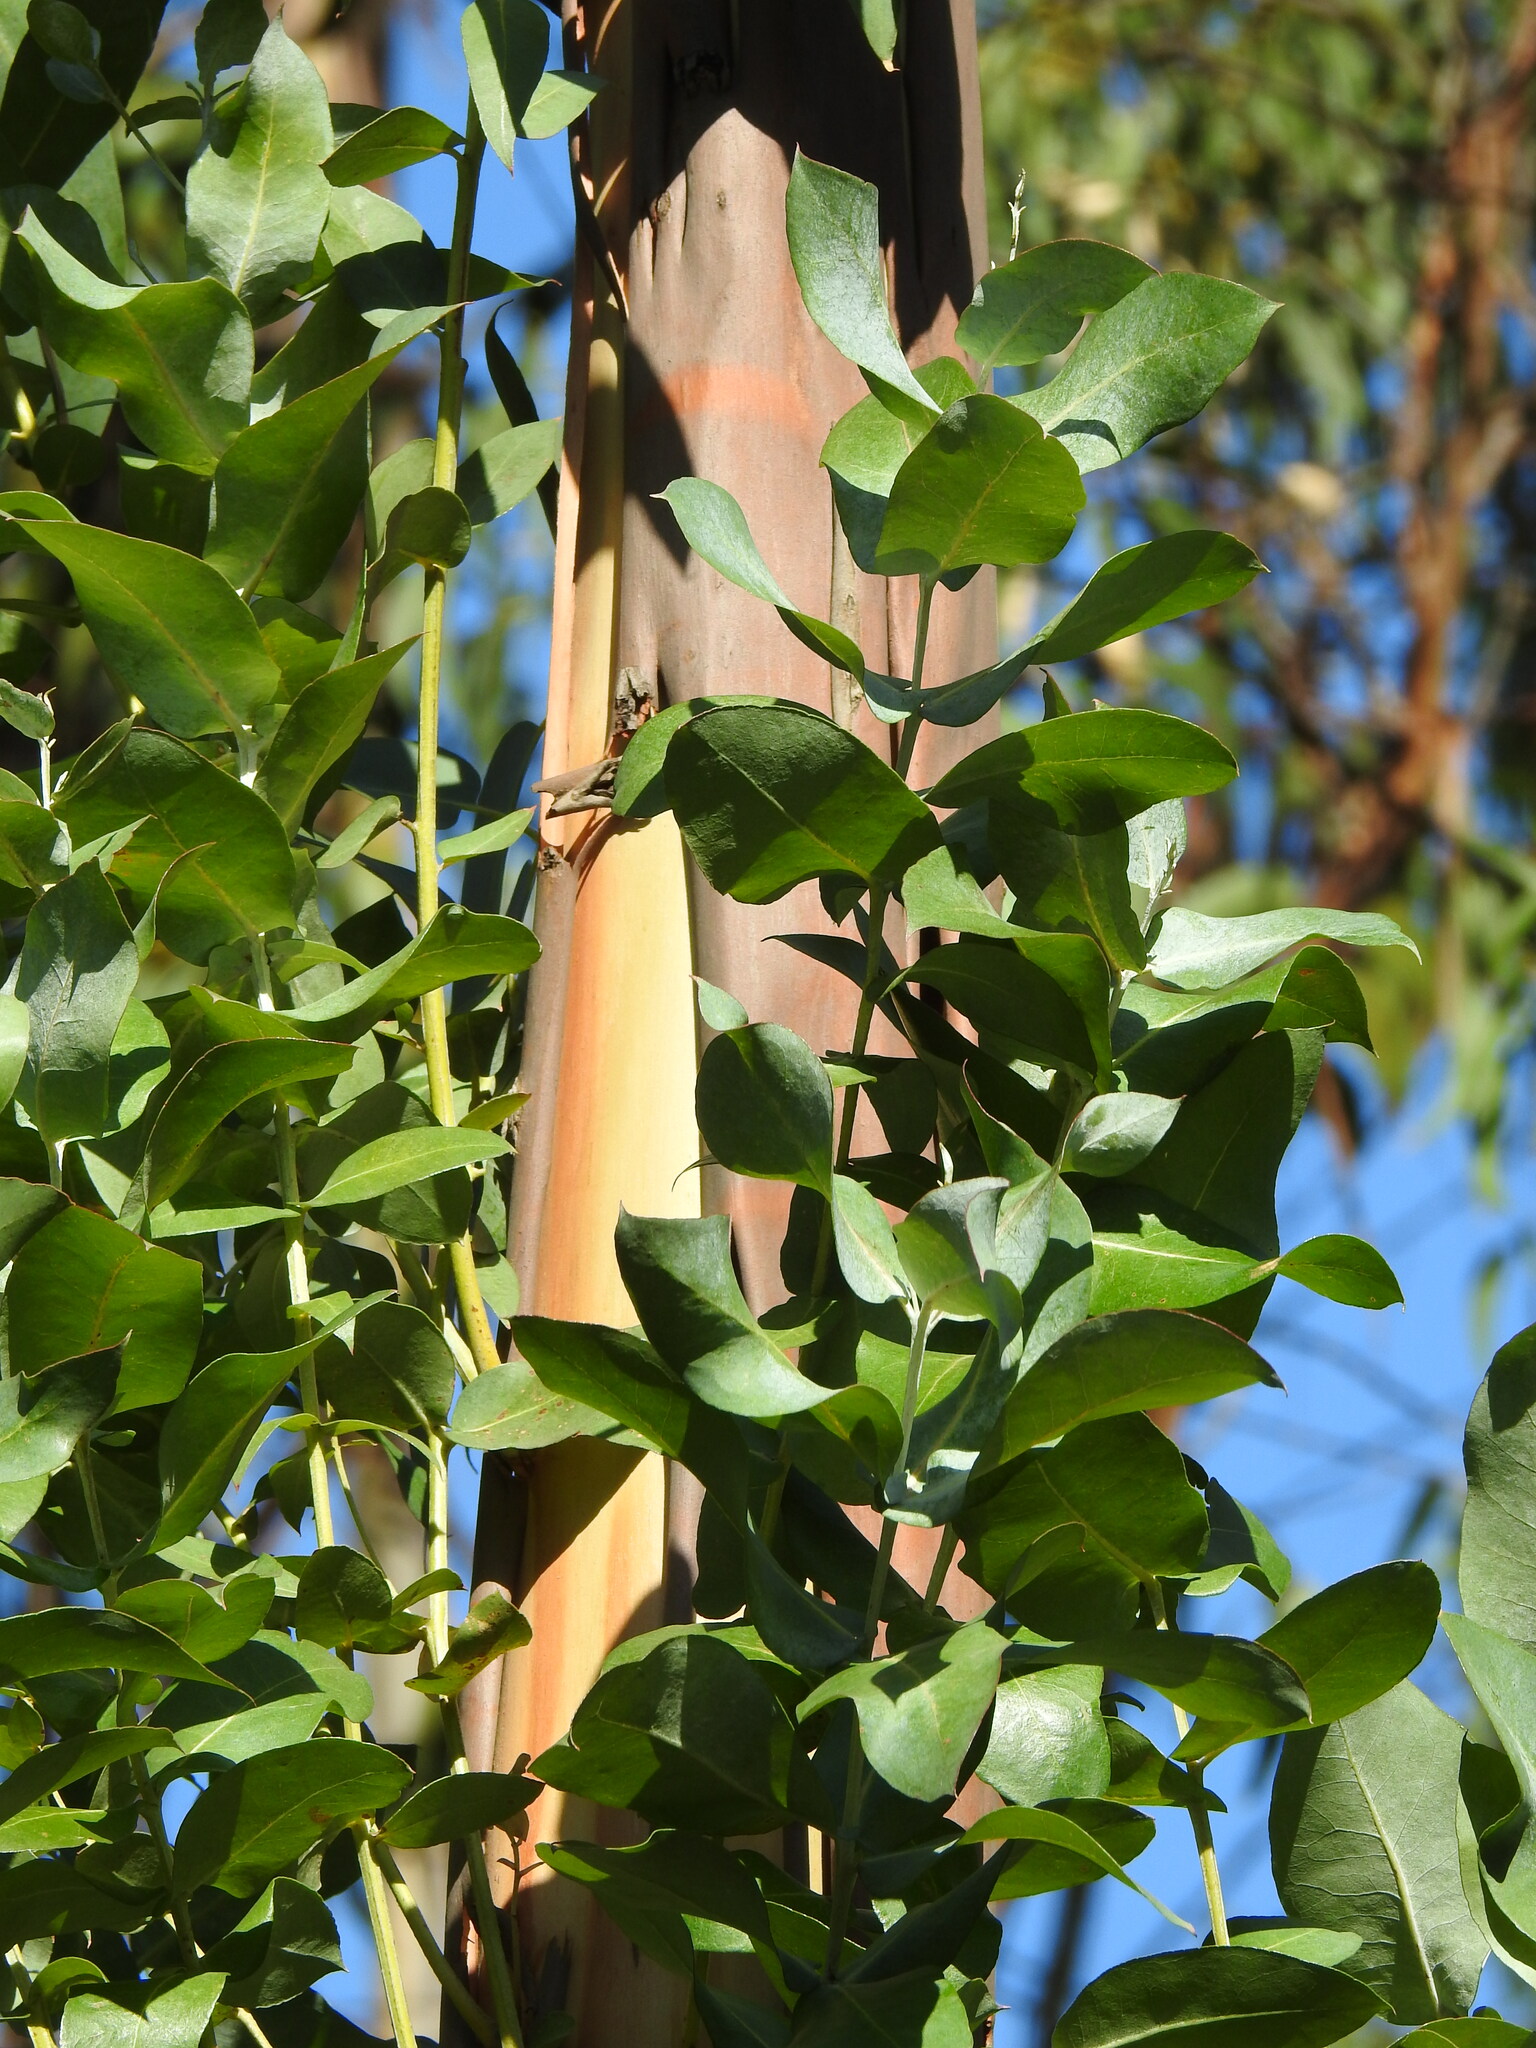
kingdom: Plantae
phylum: Tracheophyta
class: Magnoliopsida
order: Myrtales
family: Myrtaceae
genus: Eucalyptus
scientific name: Eucalyptus globulus
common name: Southern blue-gum
